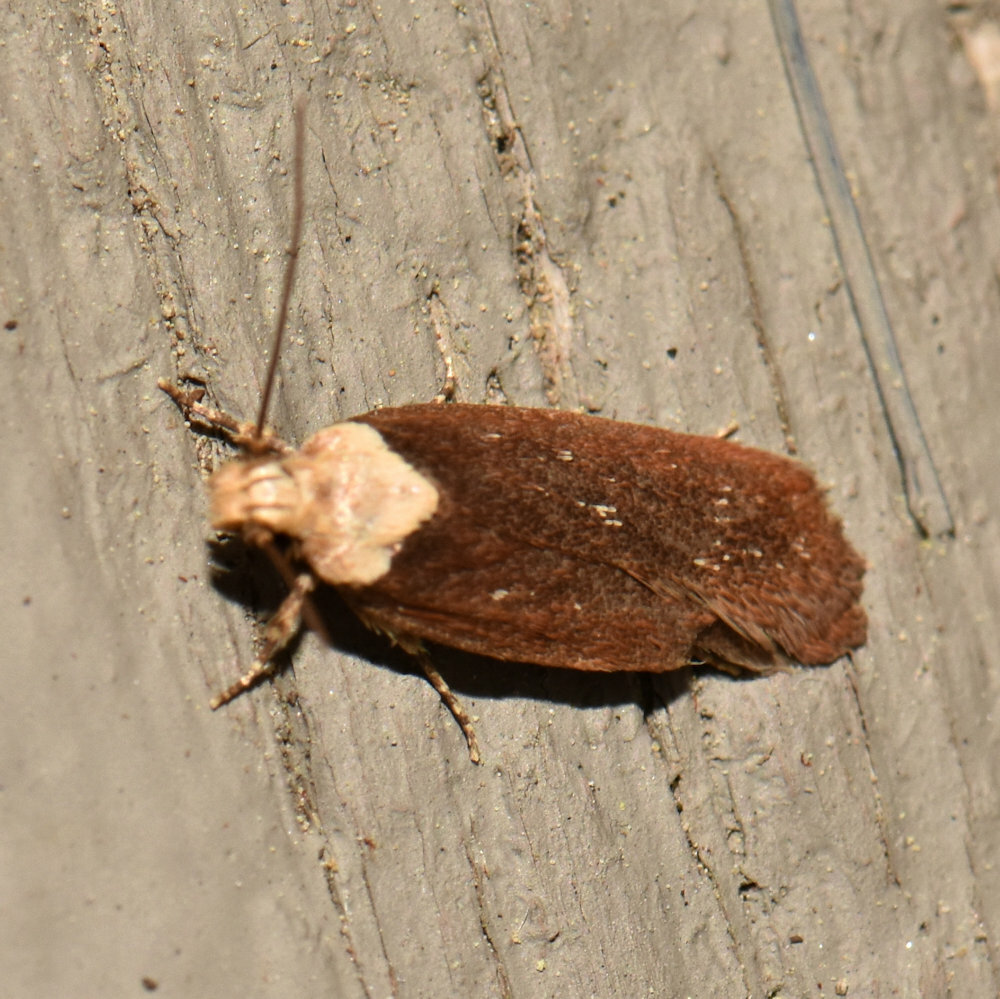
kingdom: Animalia
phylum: Arthropoda
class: Insecta
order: Lepidoptera
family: Depressariidae
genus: Depressaria
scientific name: Depressaria depressana
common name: Lost flat-body
